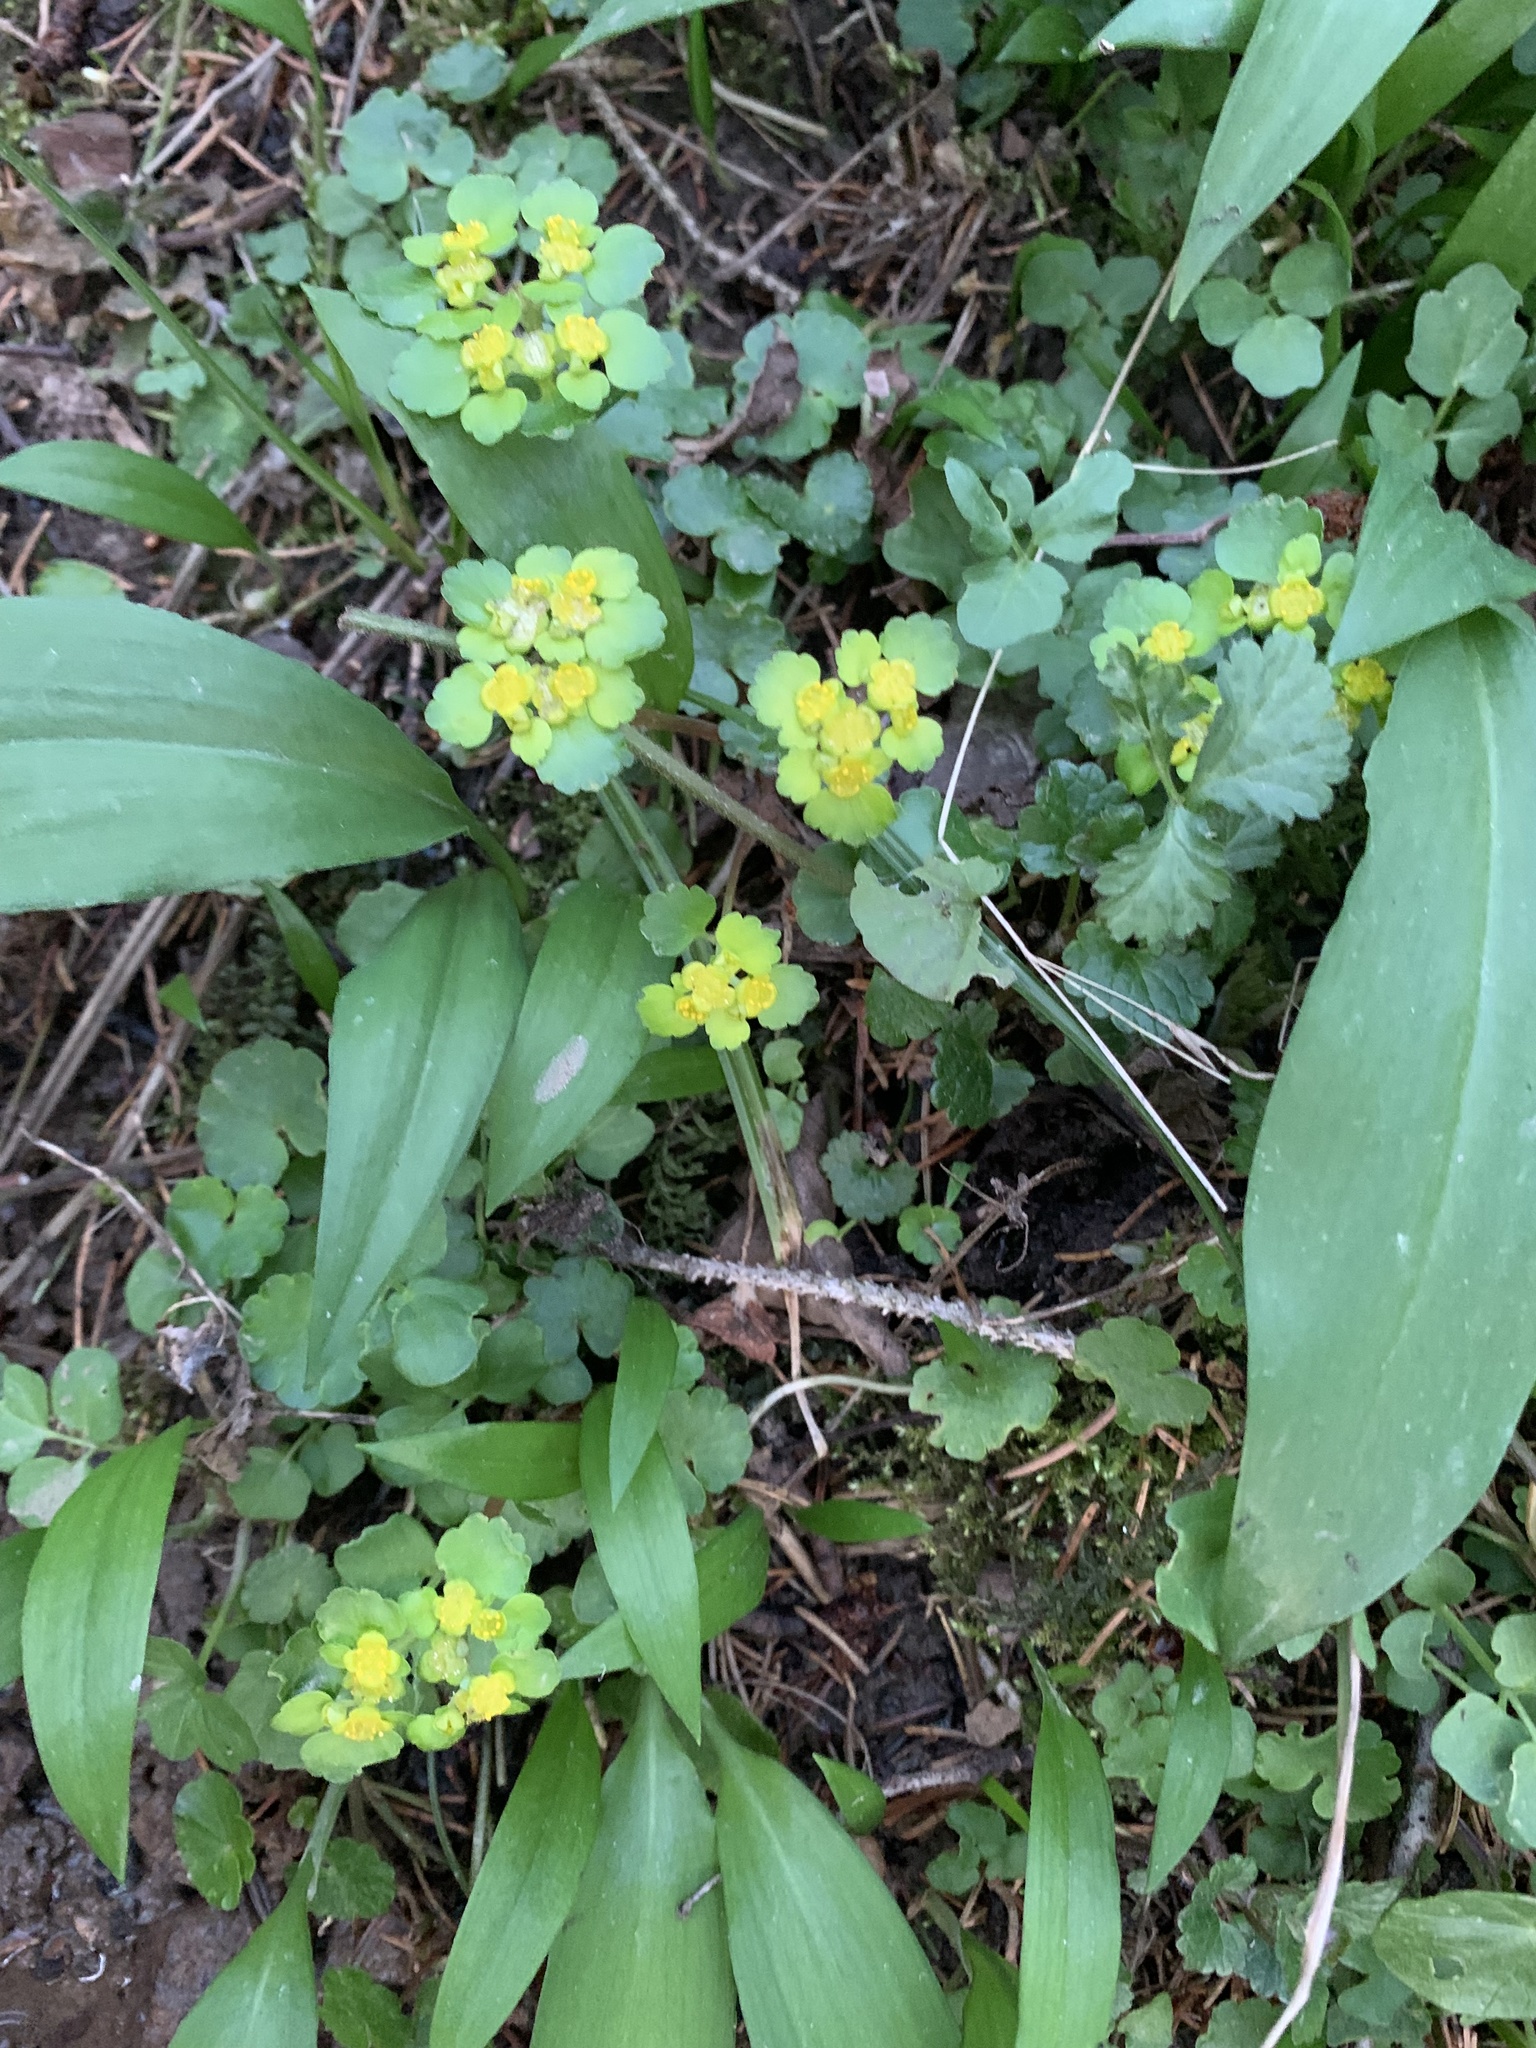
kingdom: Plantae
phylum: Tracheophyta
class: Magnoliopsida
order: Saxifragales
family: Saxifragaceae
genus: Chrysosplenium
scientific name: Chrysosplenium alternifolium
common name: Alternate-leaved golden-saxifrage
